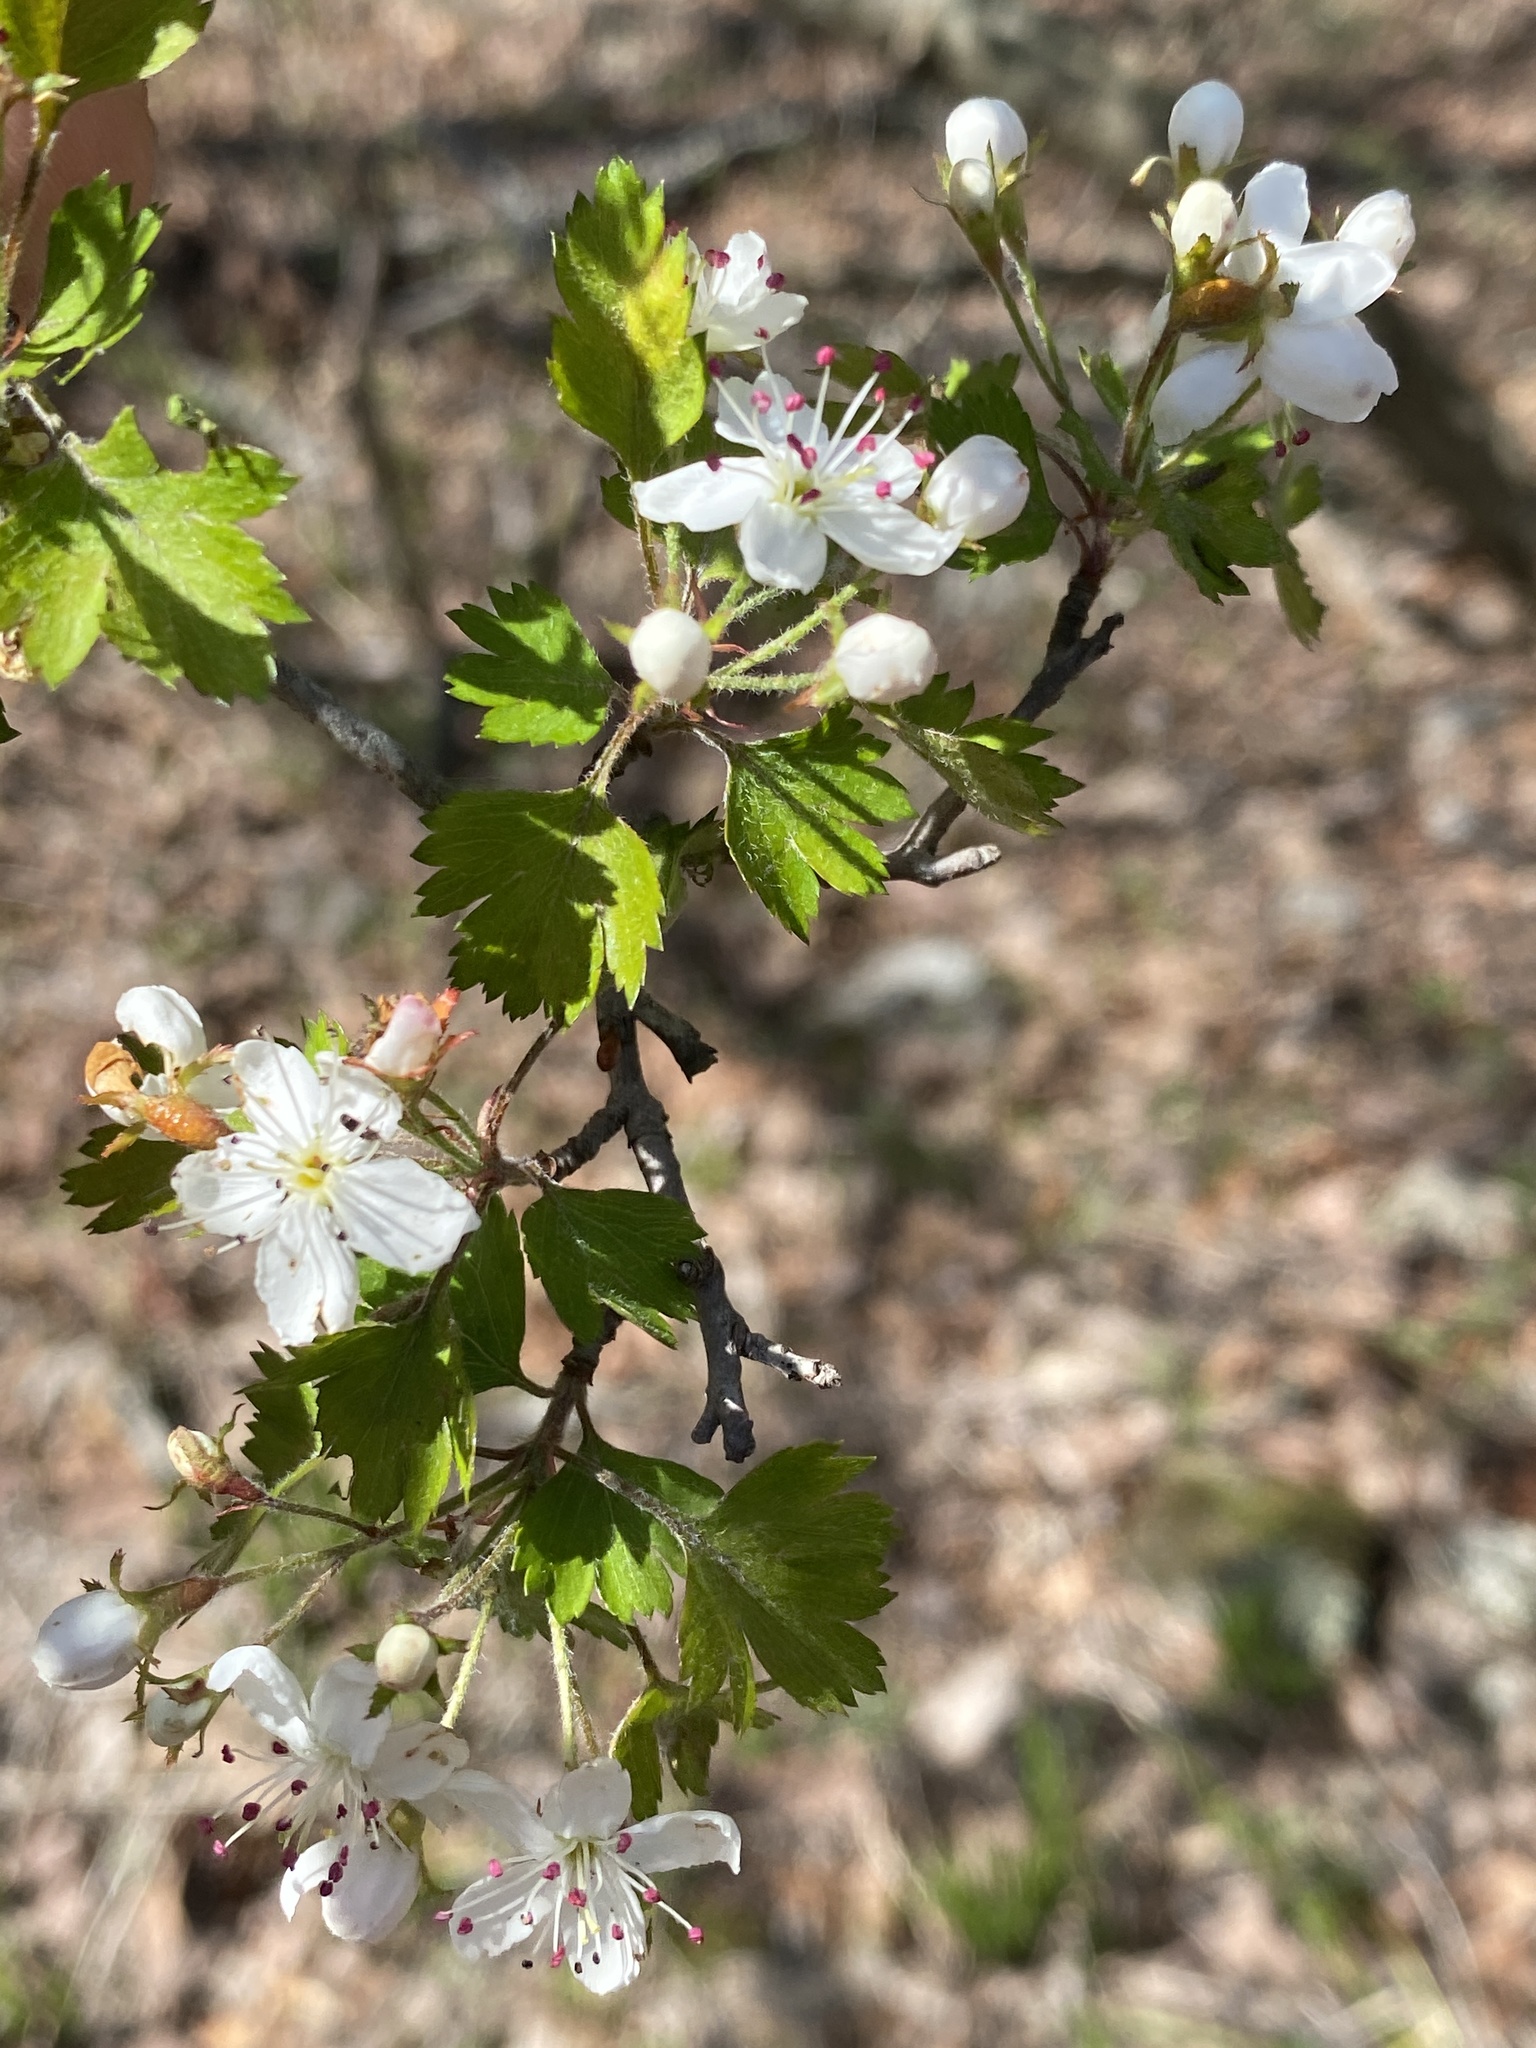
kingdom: Plantae
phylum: Tracheophyta
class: Magnoliopsida
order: Rosales
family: Rosaceae
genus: Crataegus
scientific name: Crataegus marshallii
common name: Parsley-hawthorn
